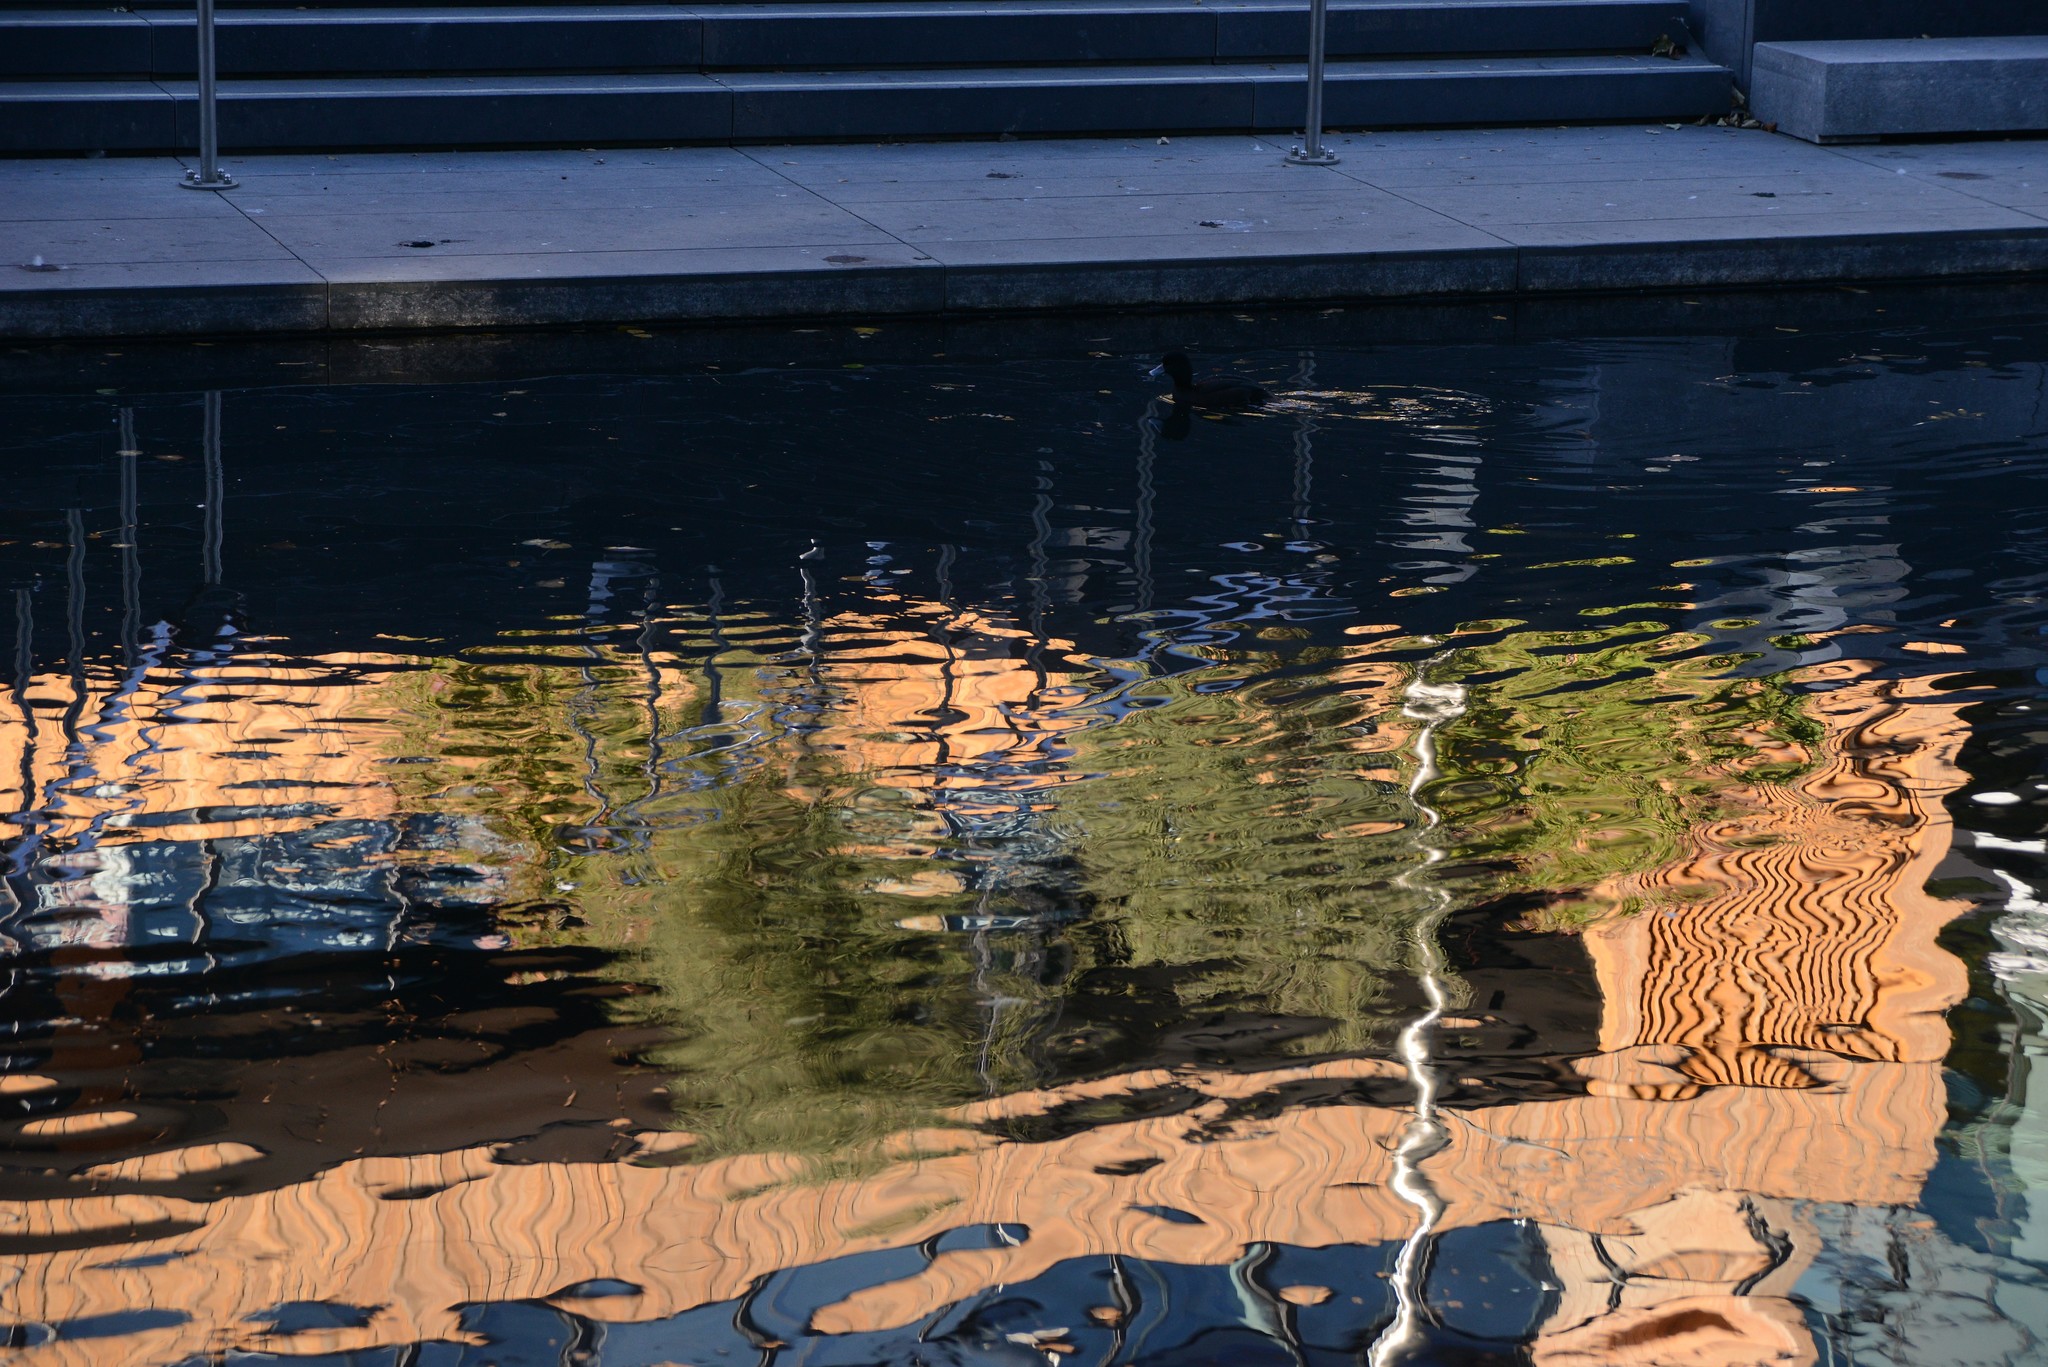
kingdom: Animalia
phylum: Chordata
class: Aves
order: Anseriformes
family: Anatidae
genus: Aythya
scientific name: Aythya novaeseelandiae
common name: New zealand scaup
